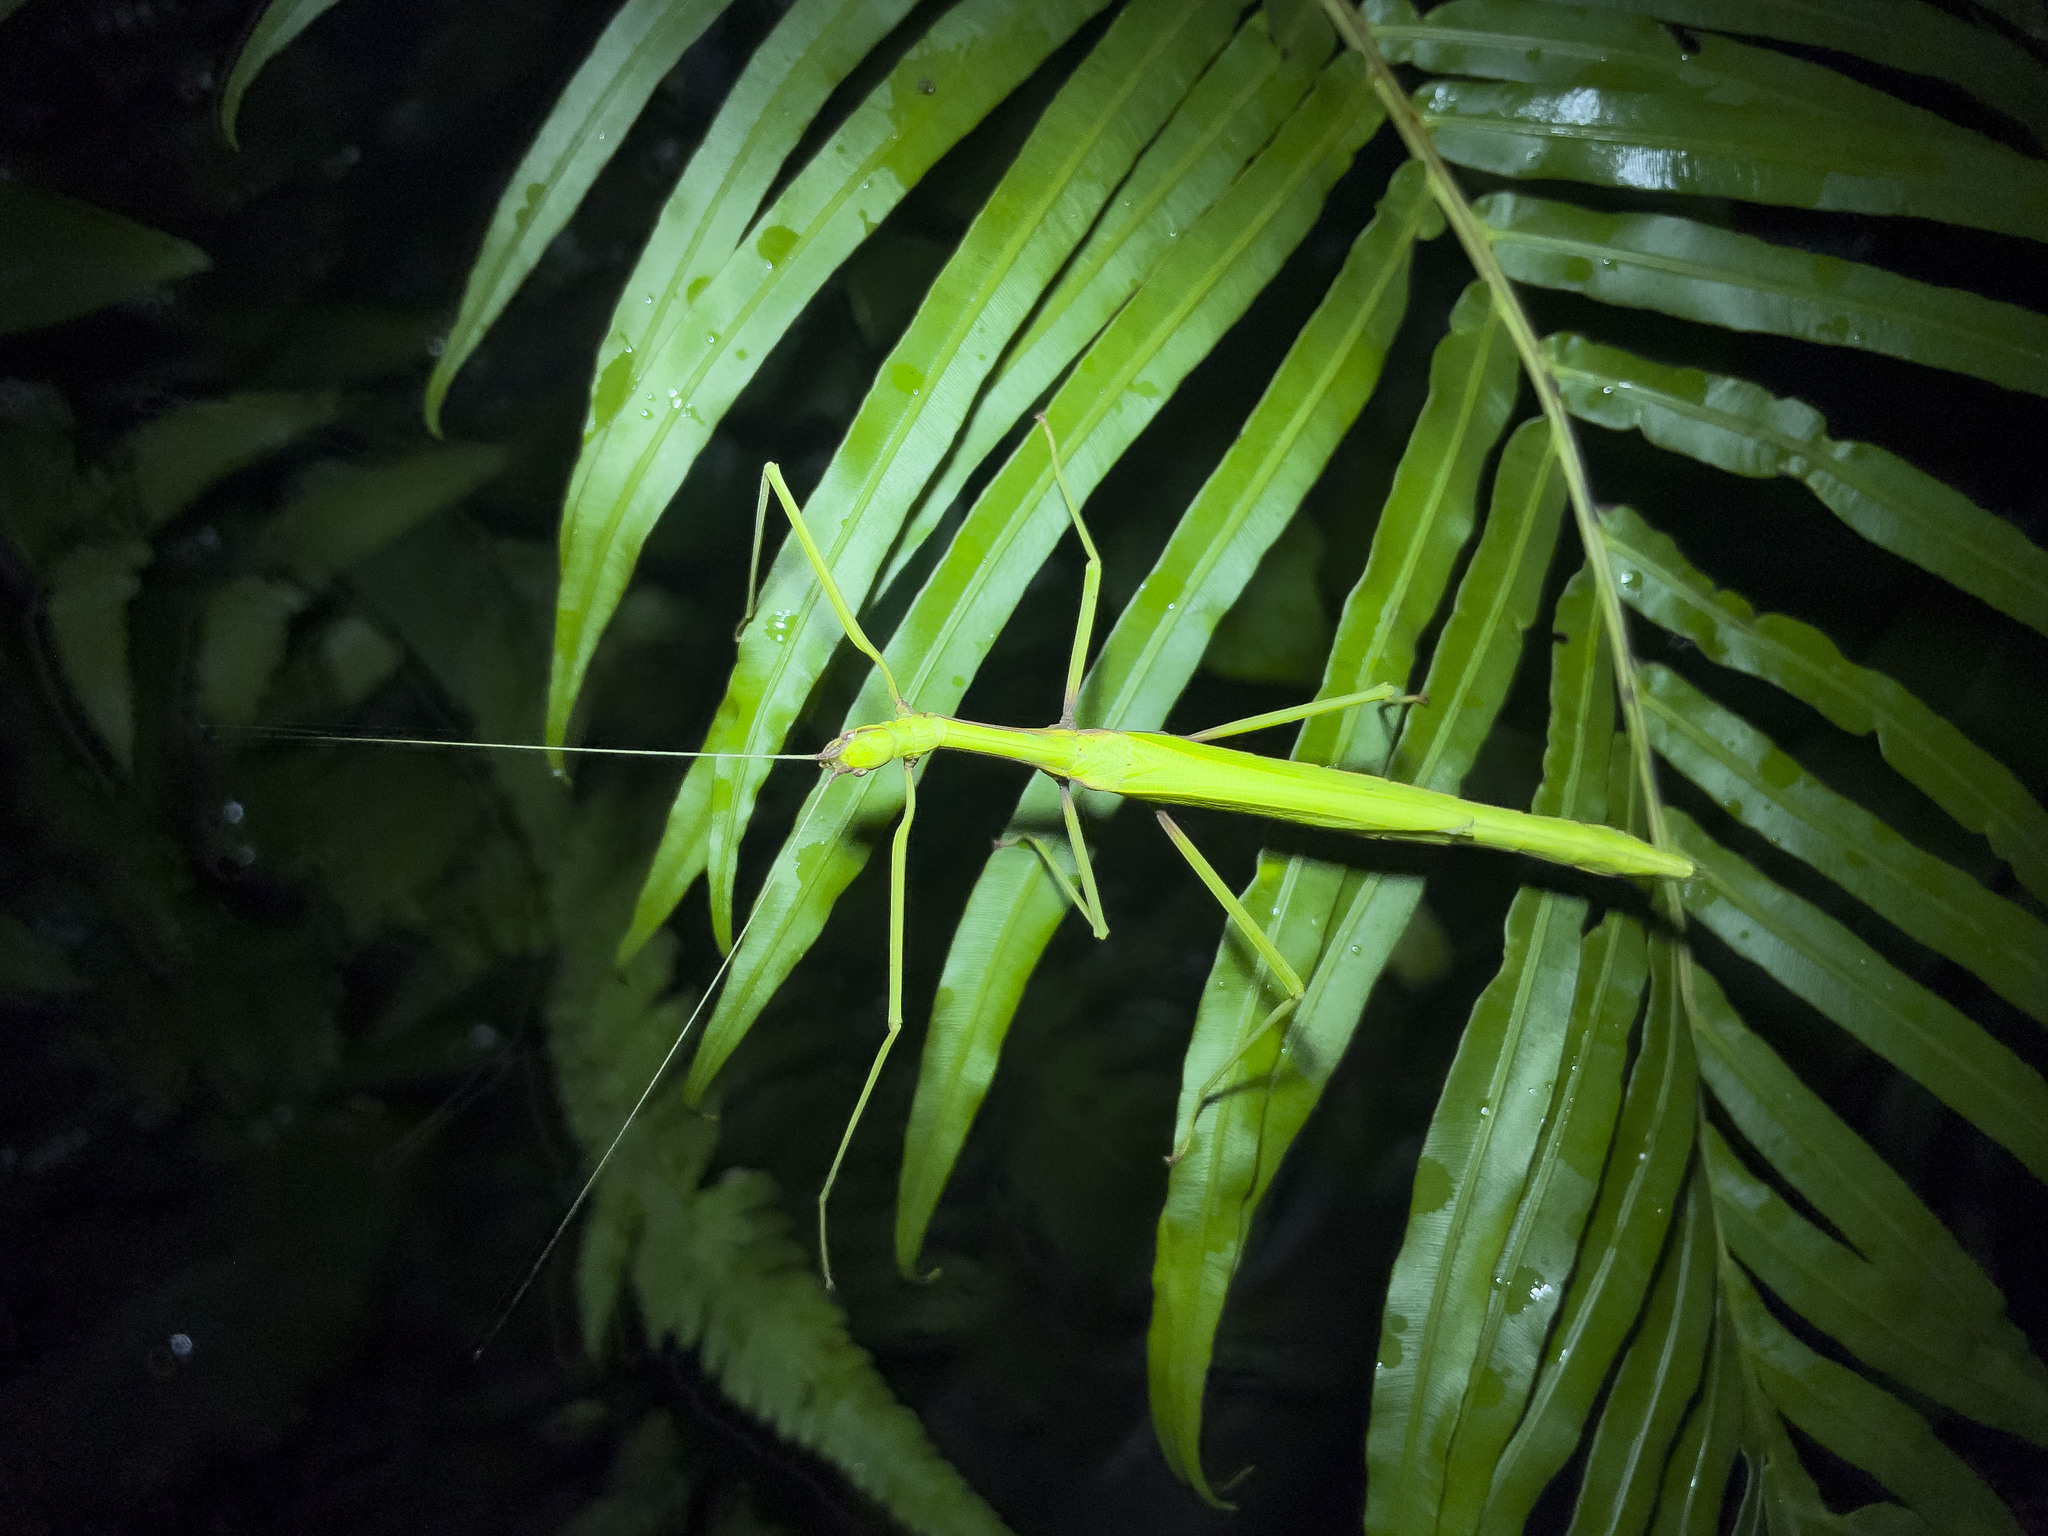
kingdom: Animalia
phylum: Arthropoda
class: Insecta
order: Phasmida
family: Lonchodidae
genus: Huananphasma
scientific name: Huananphasma amicum
